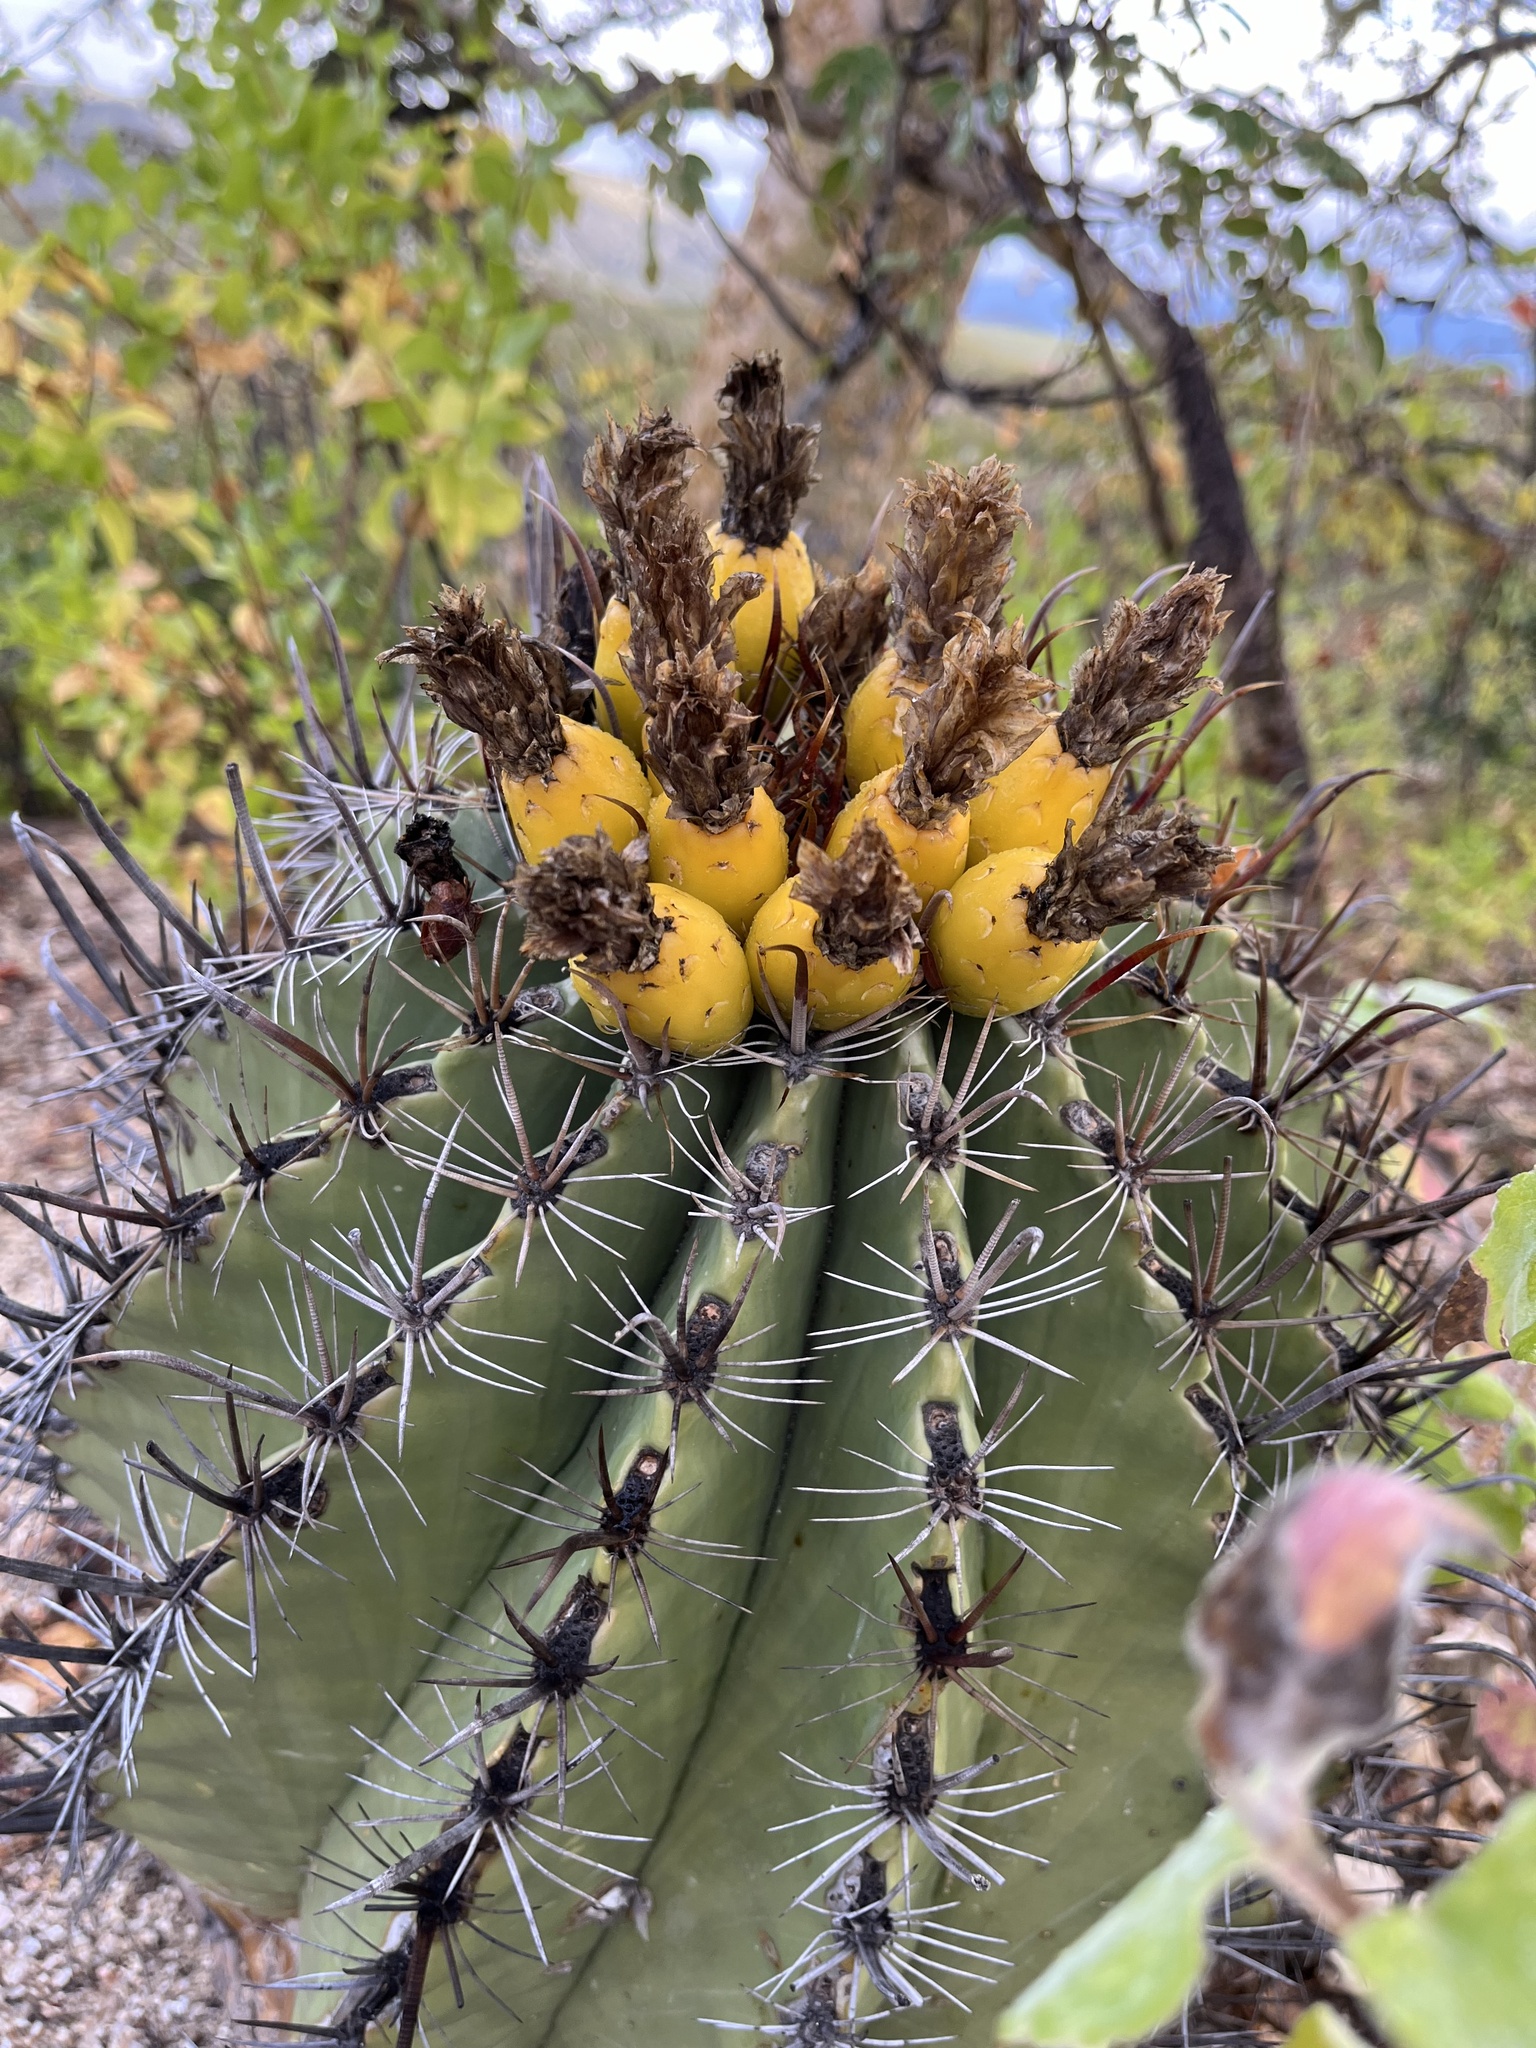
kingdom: Plantae
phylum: Tracheophyta
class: Magnoliopsida
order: Caryophyllales
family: Cactaceae
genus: Ferocactus
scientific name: Ferocactus townsendianus
